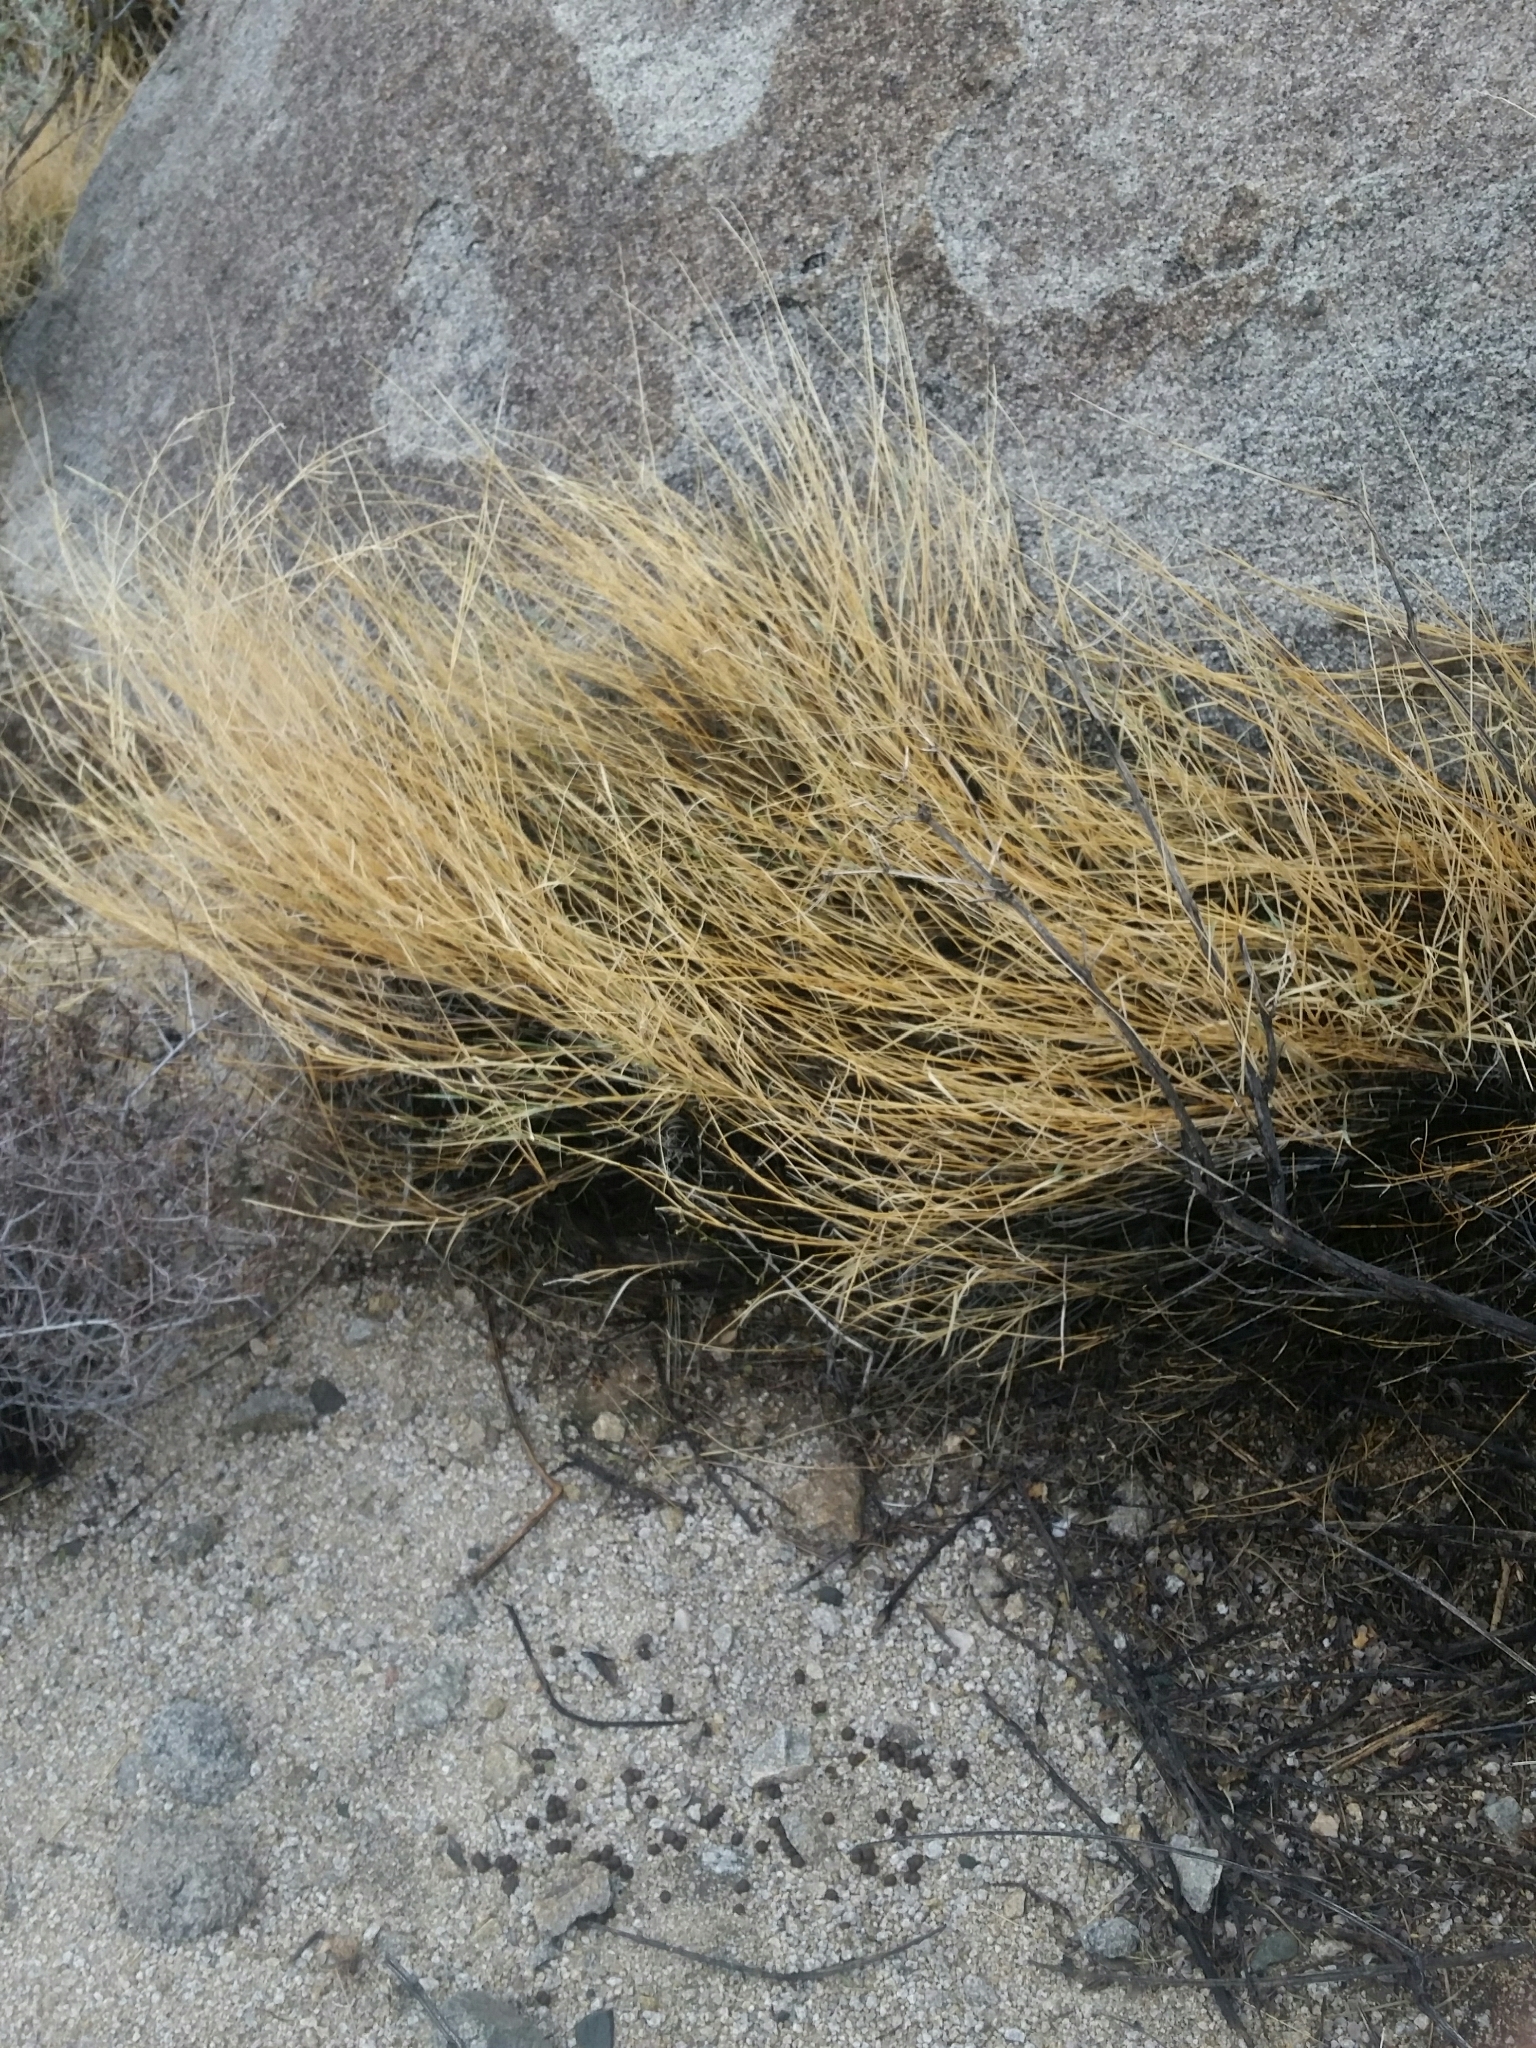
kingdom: Plantae
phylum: Tracheophyta
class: Liliopsida
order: Poales
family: Poaceae
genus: Hilaria
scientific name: Hilaria rigida
